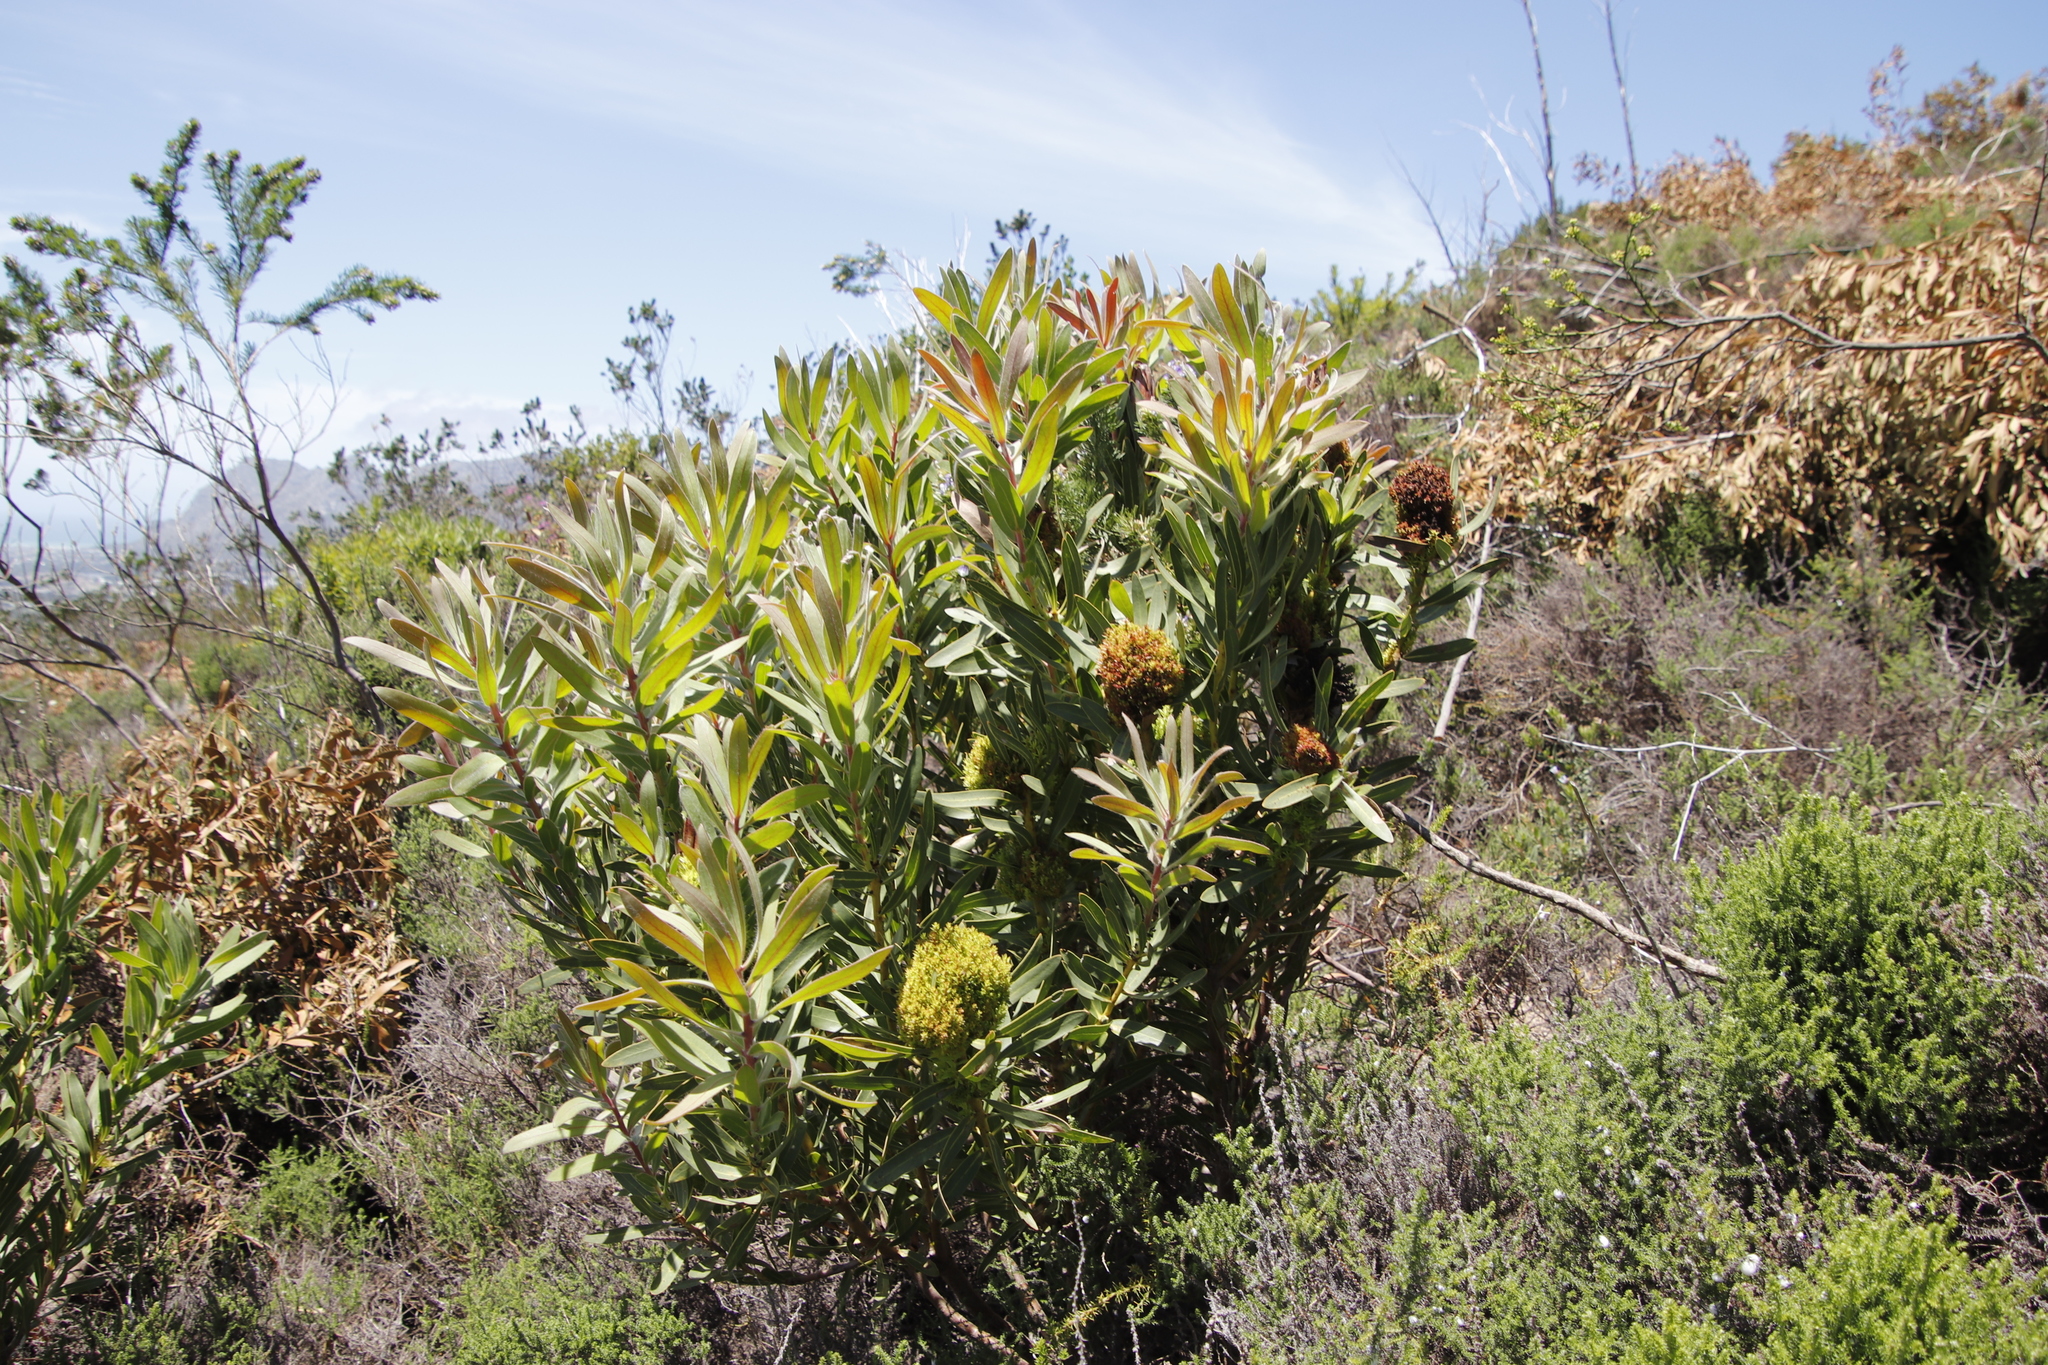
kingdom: Plantae
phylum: Tracheophyta
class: Magnoliopsida
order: Proteales
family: Proteaceae
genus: Protea
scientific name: Protea lepidocarpodendron
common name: Black-bearded protea
